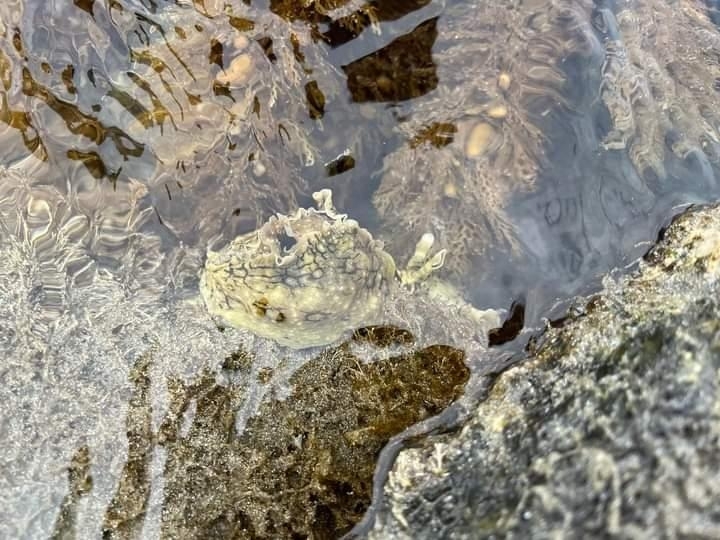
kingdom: Animalia
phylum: Mollusca
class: Gastropoda
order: Aplysiida
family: Aplysiidae
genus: Aplysia
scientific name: Aplysia argus
